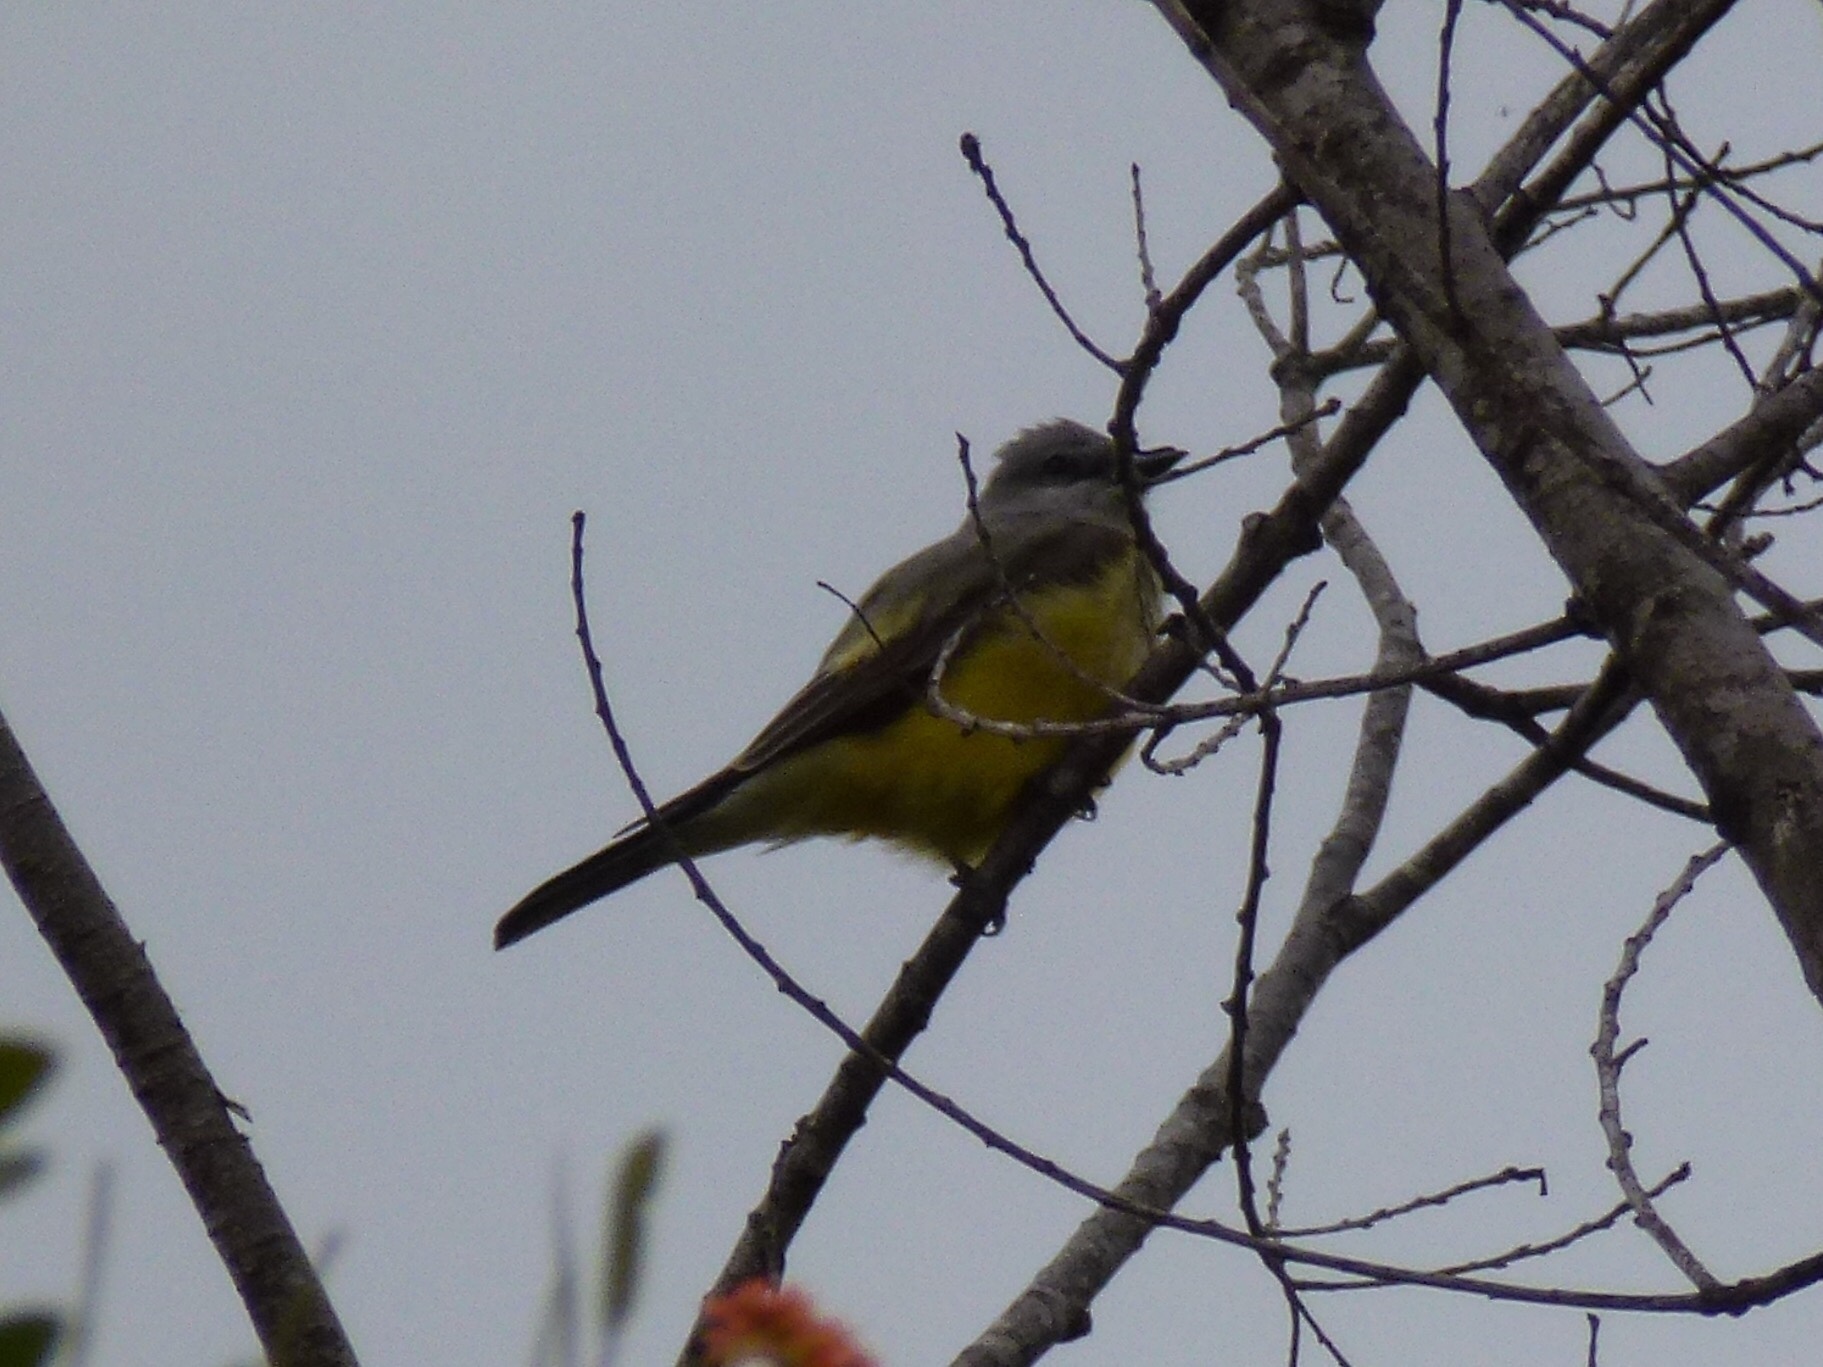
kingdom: Animalia
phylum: Chordata
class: Aves
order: Passeriformes
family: Tyrannidae
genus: Tyrannus
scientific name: Tyrannus verticalis
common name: Western kingbird
